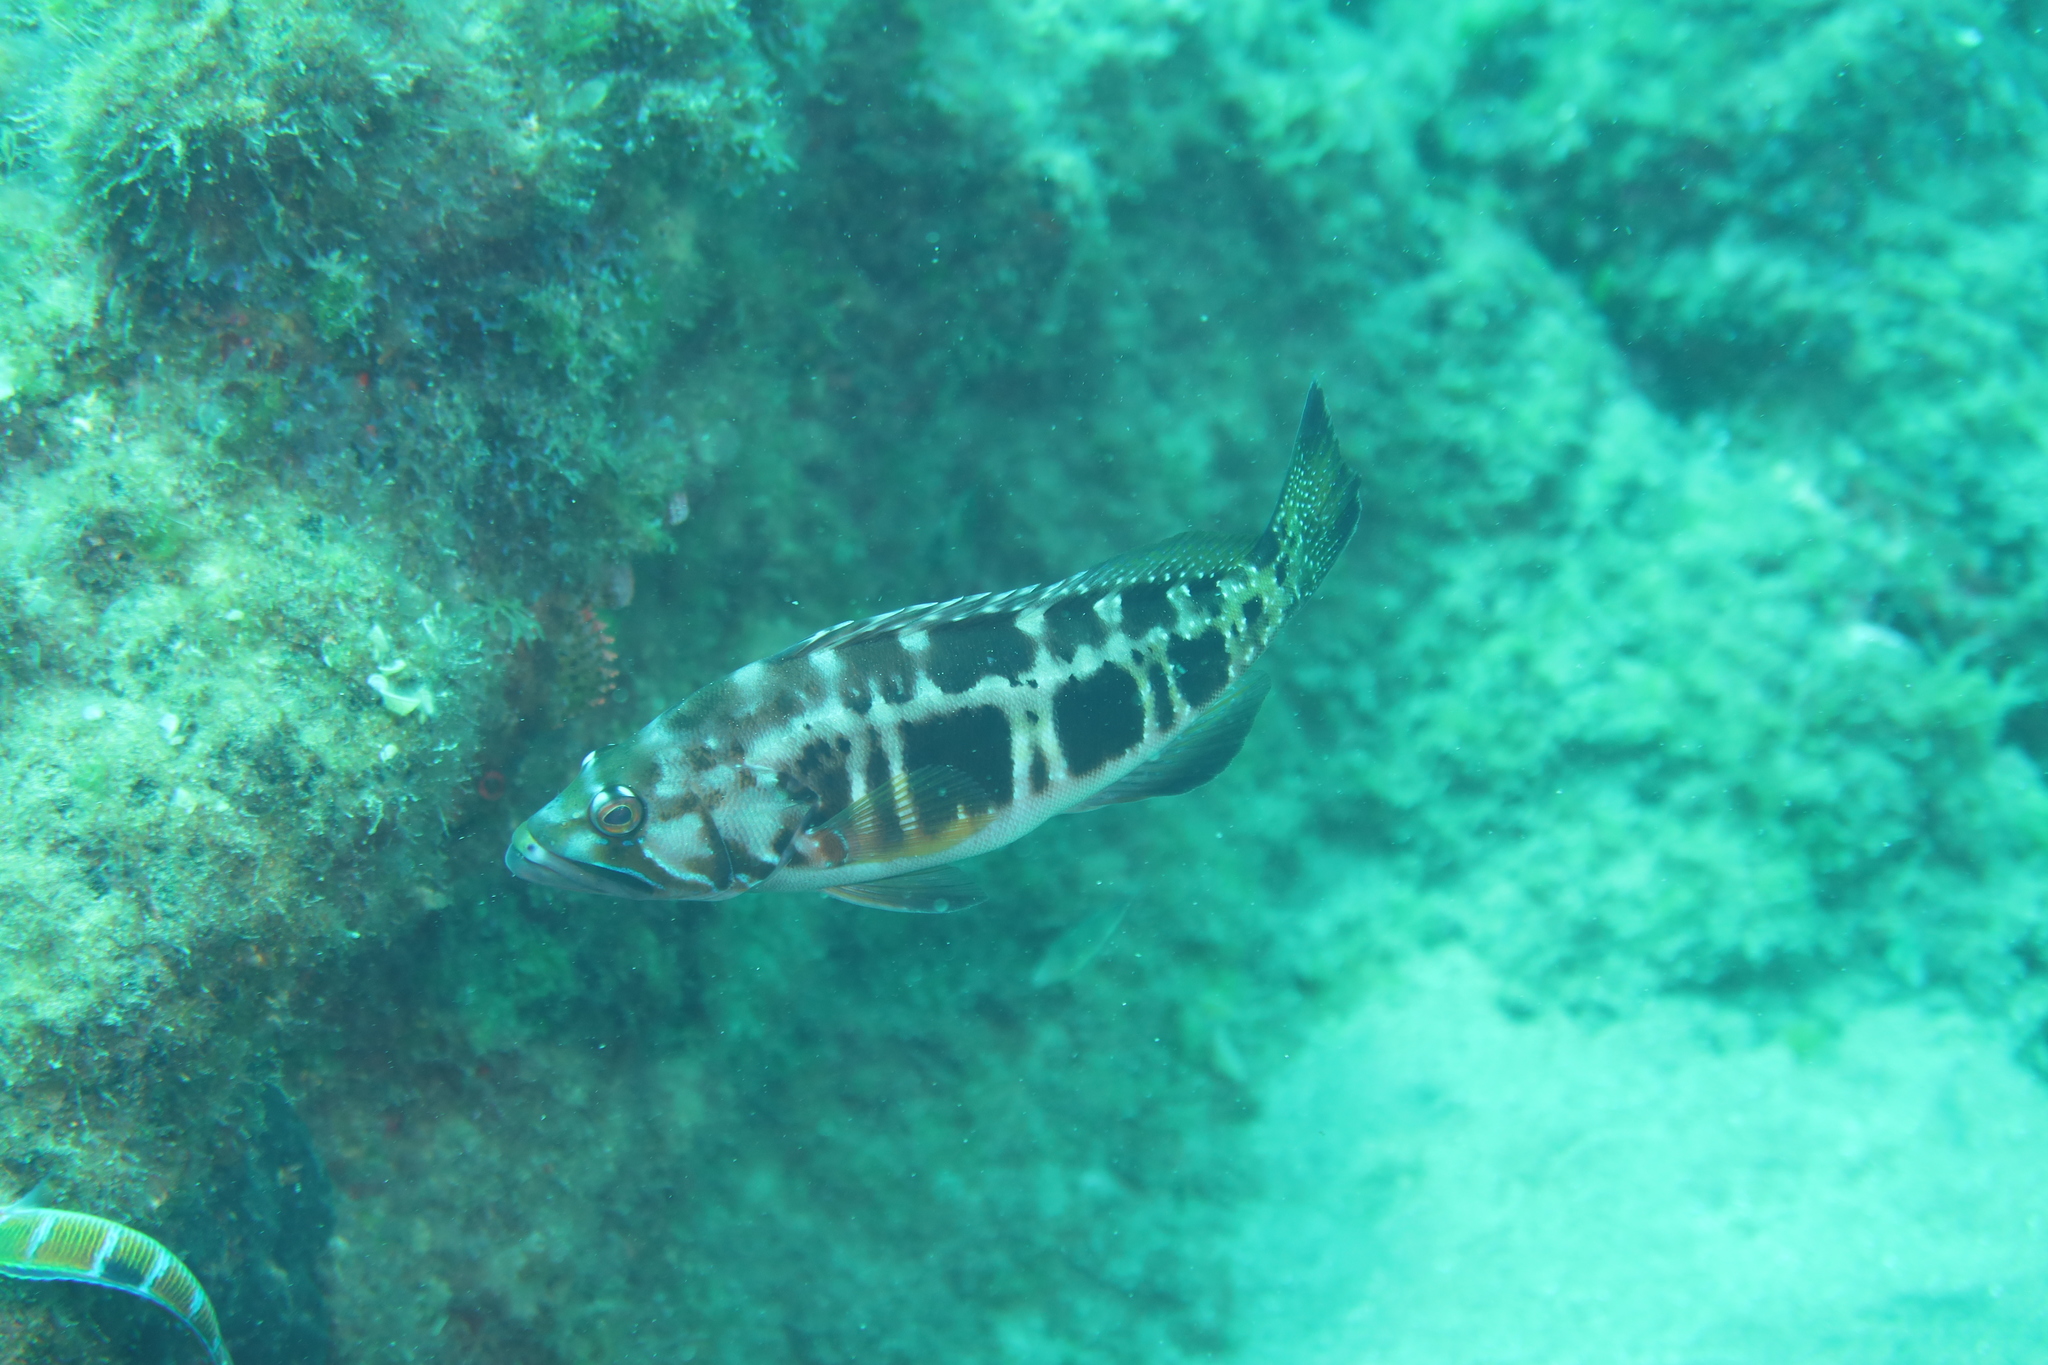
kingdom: Animalia
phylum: Chordata
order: Perciformes
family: Serranidae
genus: Serranus
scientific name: Serranus atricauda
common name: Blacktail comber
